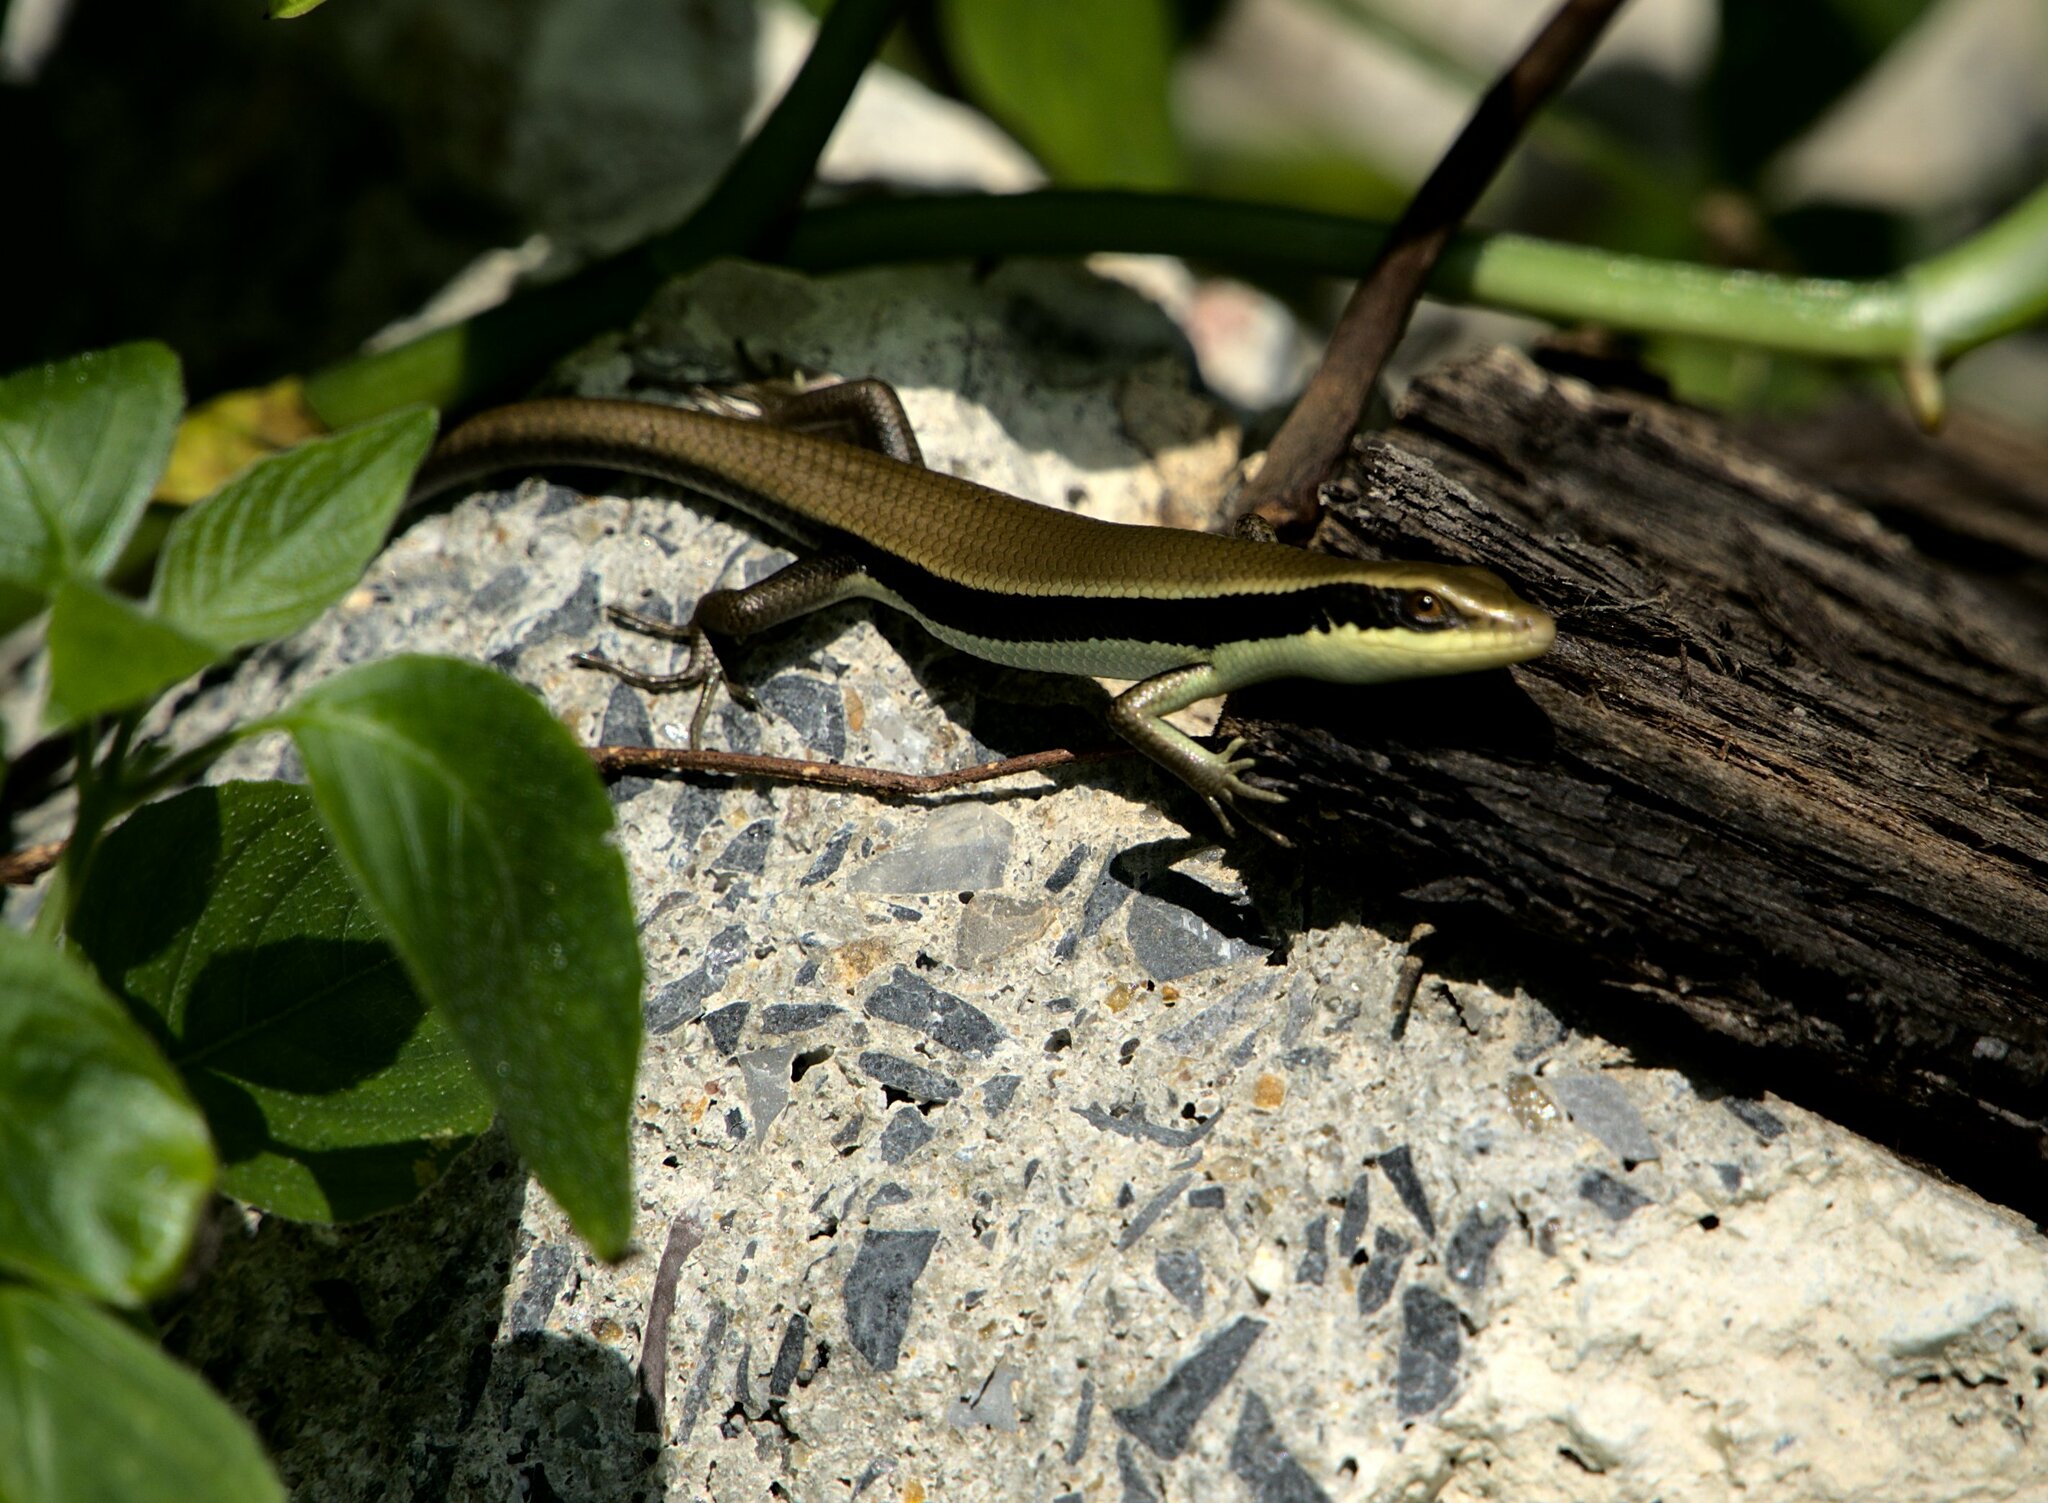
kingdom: Animalia
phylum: Chordata
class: Squamata
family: Scincidae
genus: Eutropis
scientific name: Eutropis longicaudata
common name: Long-tailed sun skink
